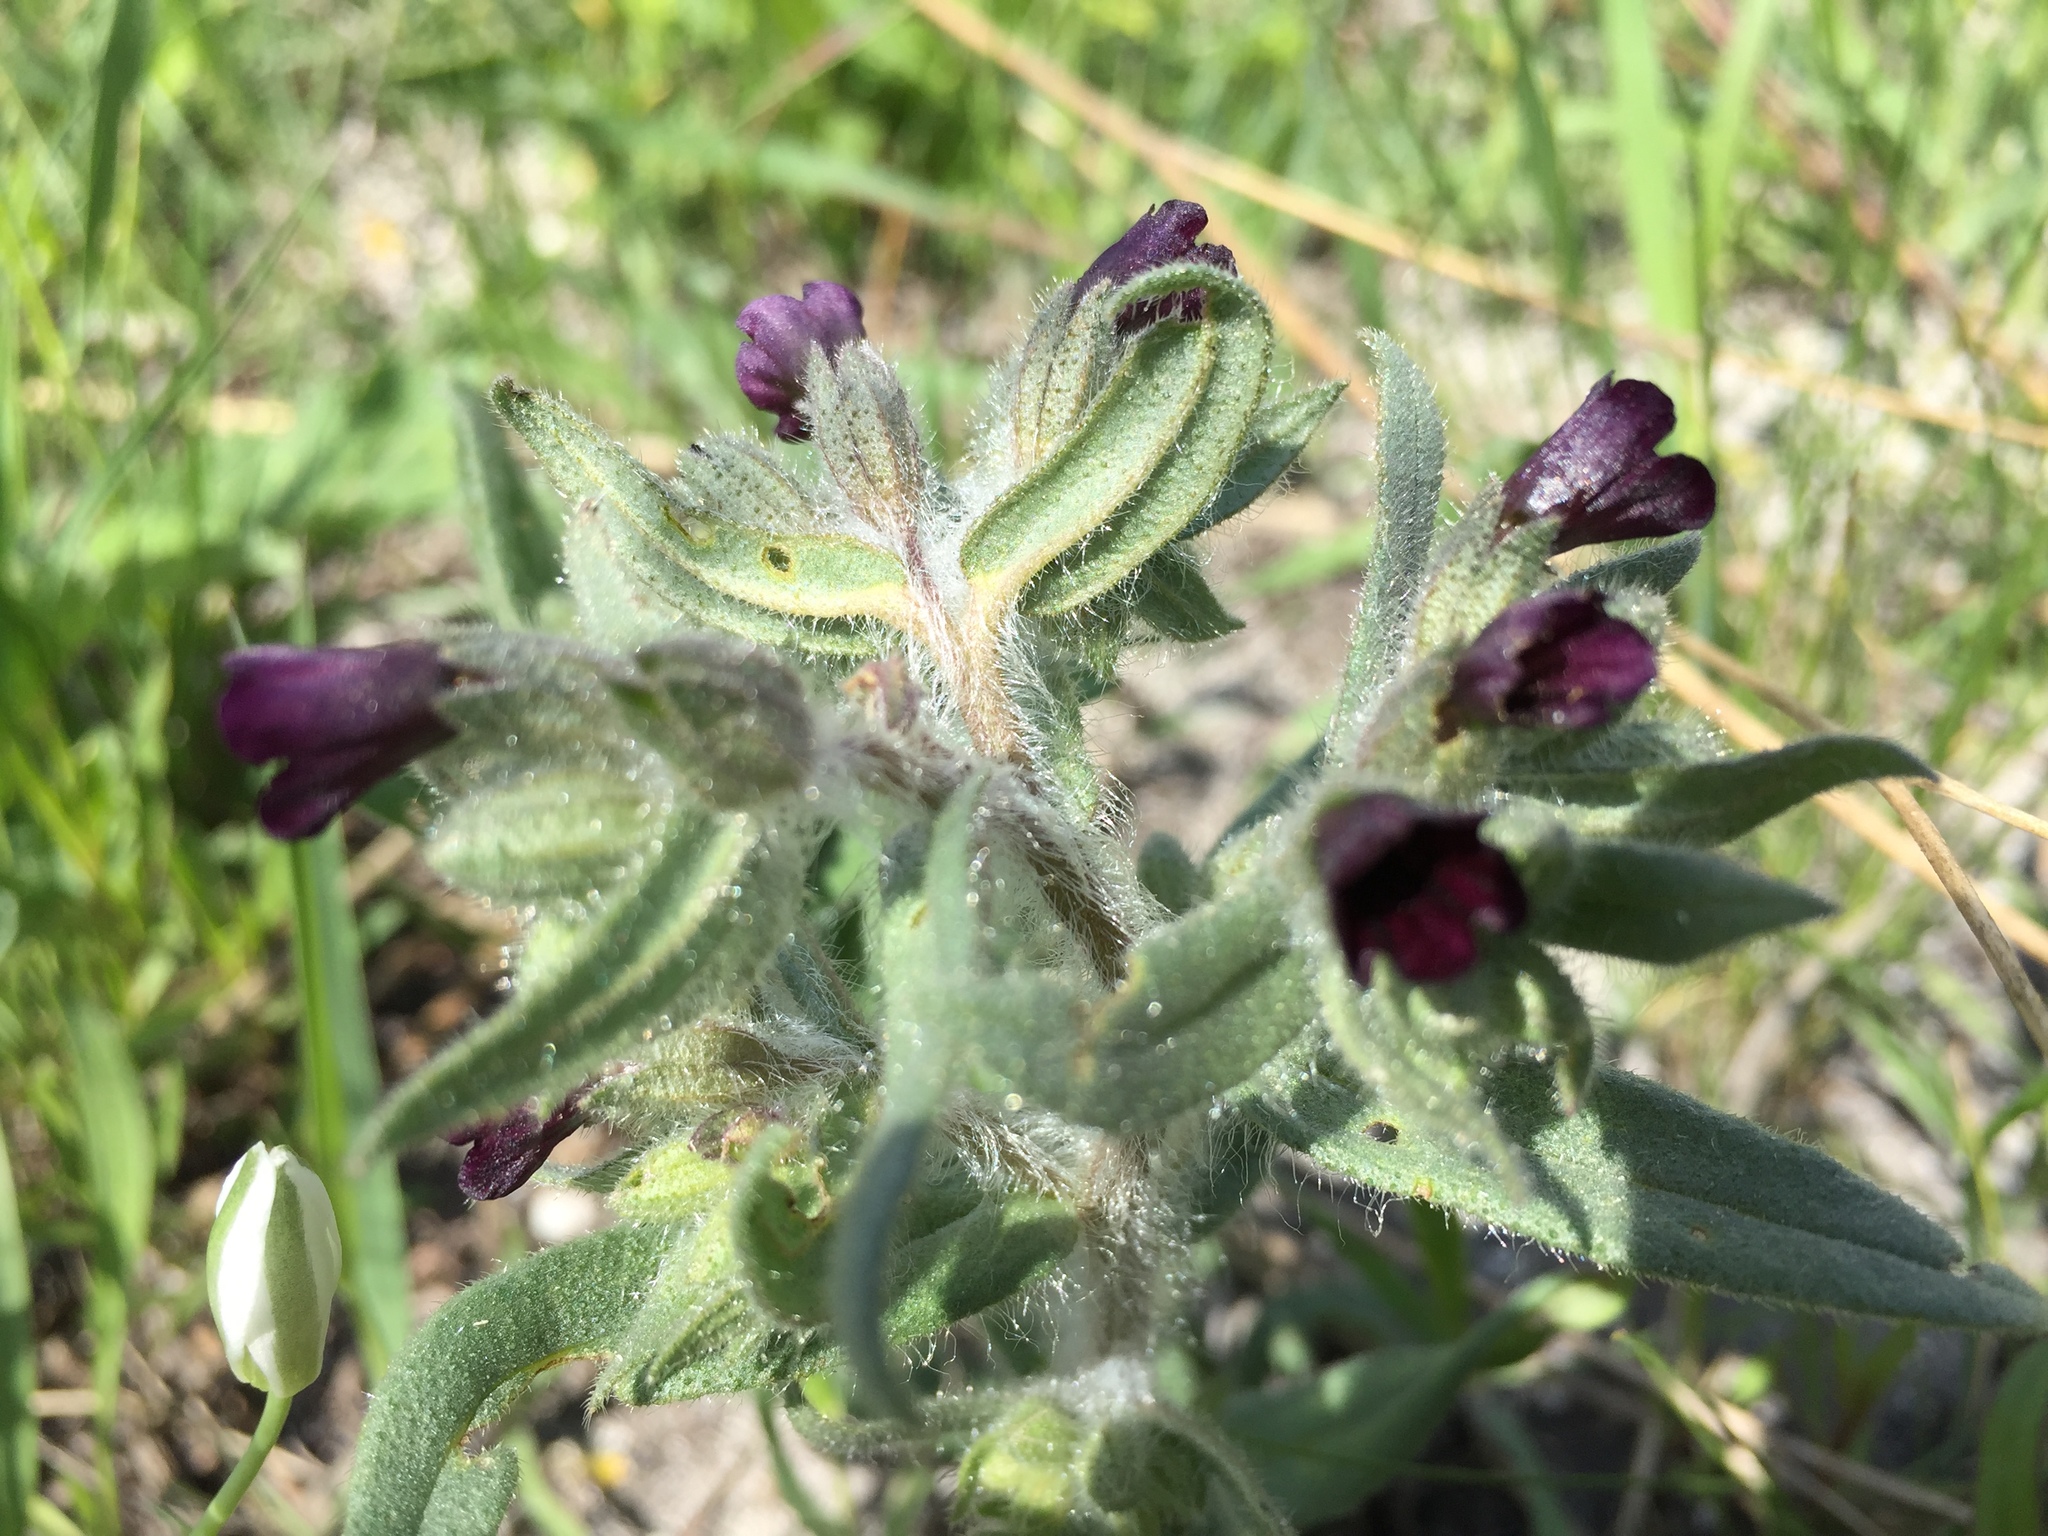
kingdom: Plantae
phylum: Tracheophyta
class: Magnoliopsida
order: Boraginales
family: Boraginaceae
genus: Nonea
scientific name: Nonea pulla
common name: Brown nonea
